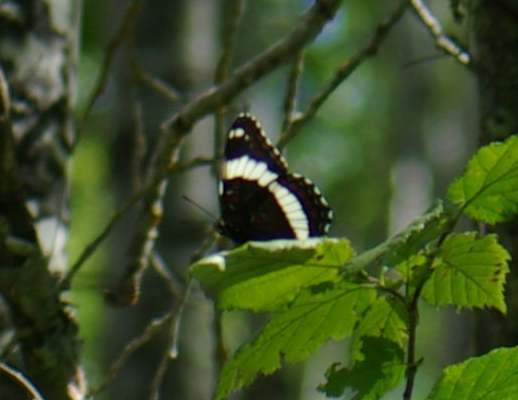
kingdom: Animalia
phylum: Arthropoda
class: Insecta
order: Lepidoptera
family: Nymphalidae
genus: Limenitis
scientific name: Limenitis arthemis
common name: Red-spotted admiral
